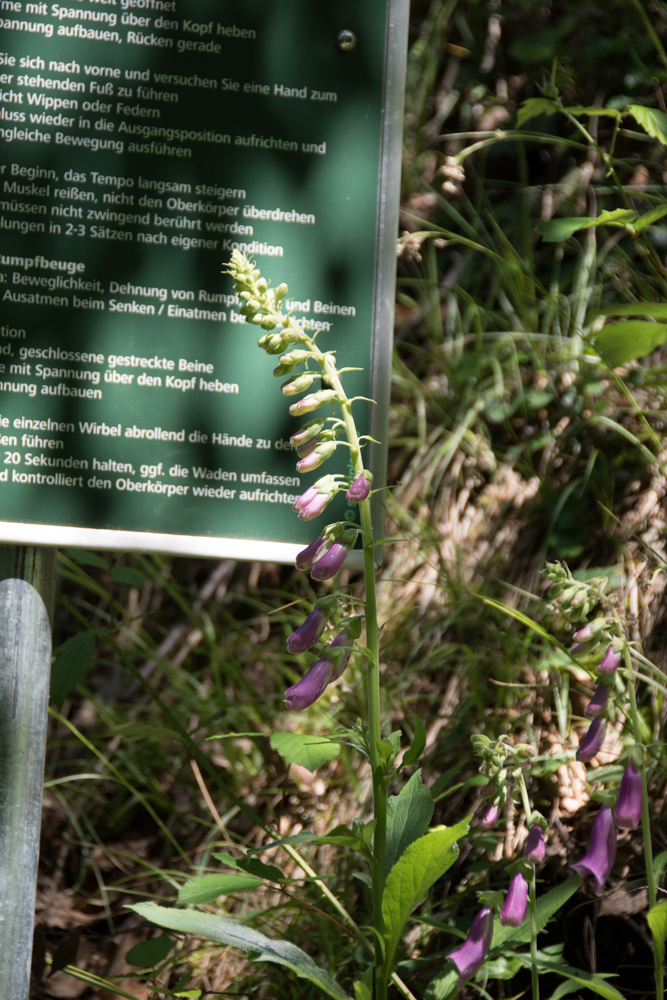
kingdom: Plantae
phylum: Tracheophyta
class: Magnoliopsida
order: Lamiales
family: Plantaginaceae
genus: Digitalis
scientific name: Digitalis purpurea
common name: Foxglove
